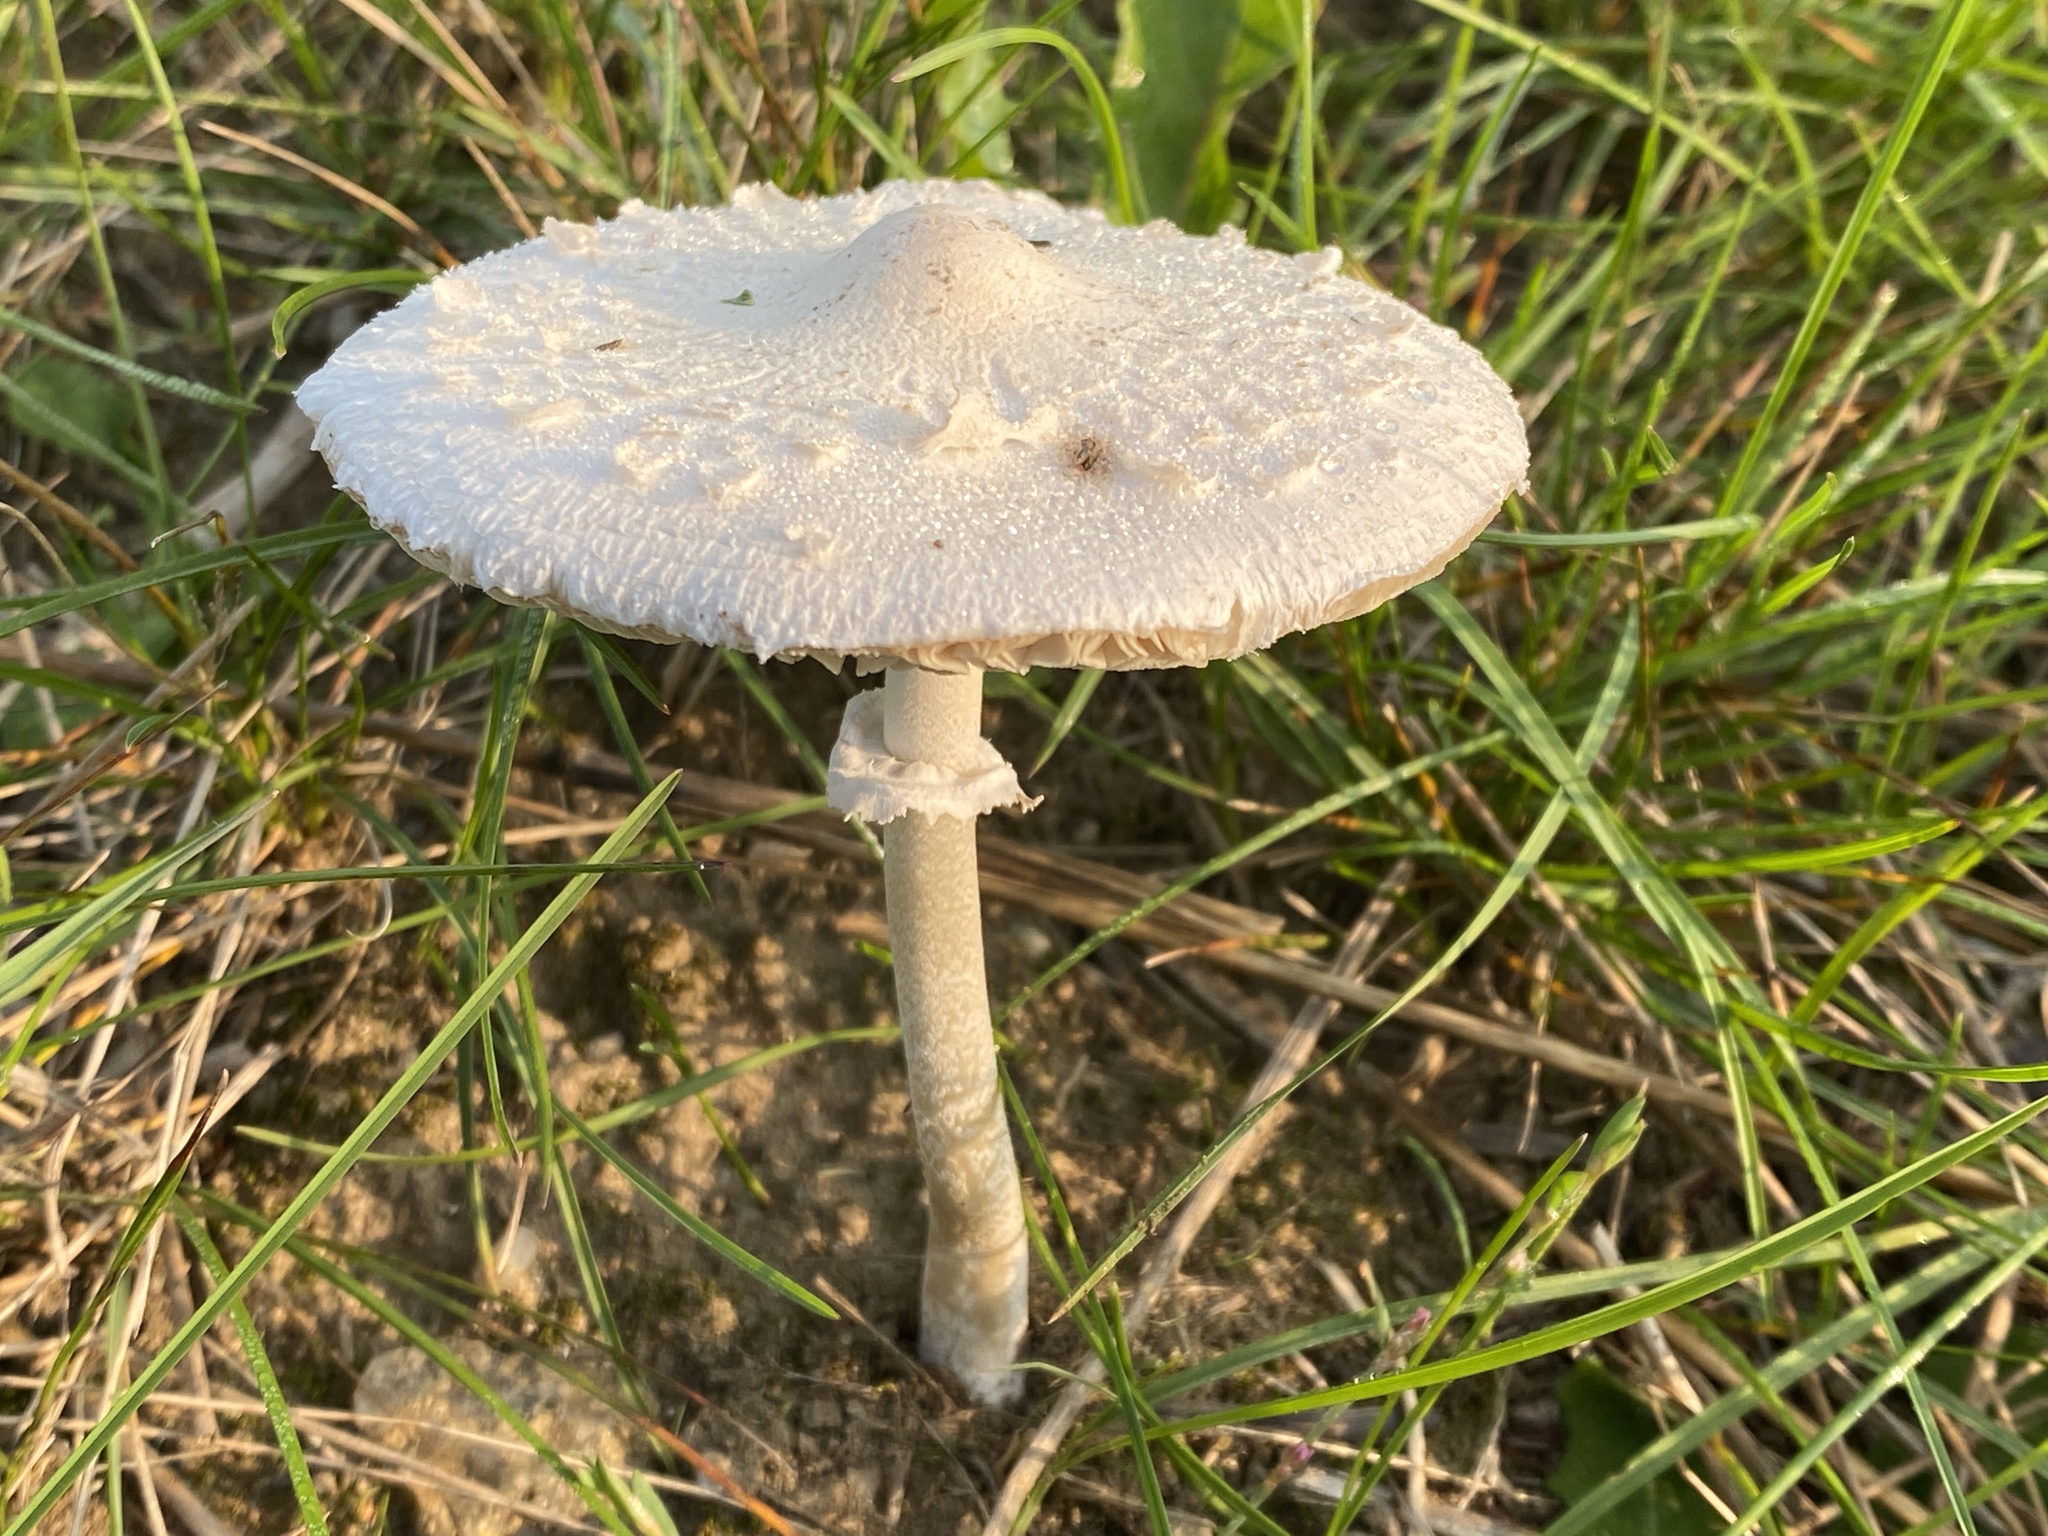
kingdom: Fungi
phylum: Basidiomycota
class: Agaricomycetes
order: Agaricales
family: Agaricaceae
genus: Macrolepiota
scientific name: Macrolepiota excoriata
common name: Frayed parasol
